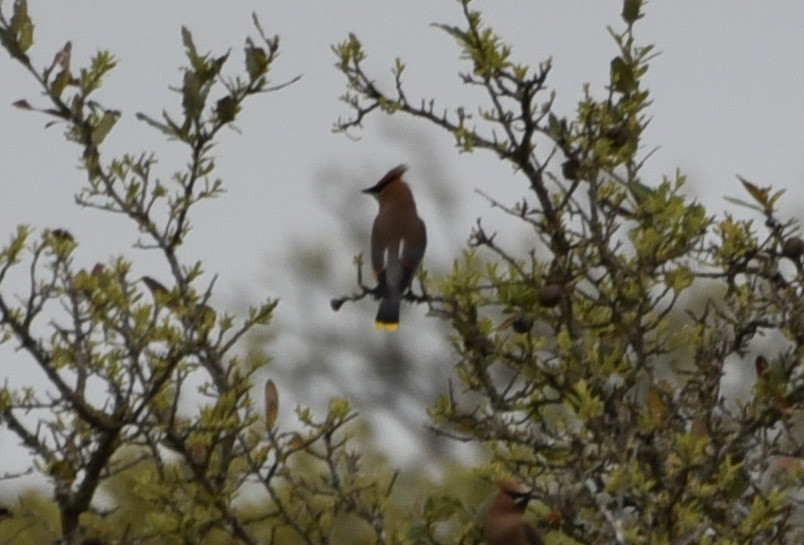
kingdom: Animalia
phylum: Chordata
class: Aves
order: Passeriformes
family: Bombycillidae
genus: Bombycilla
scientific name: Bombycilla cedrorum
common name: Cedar waxwing
